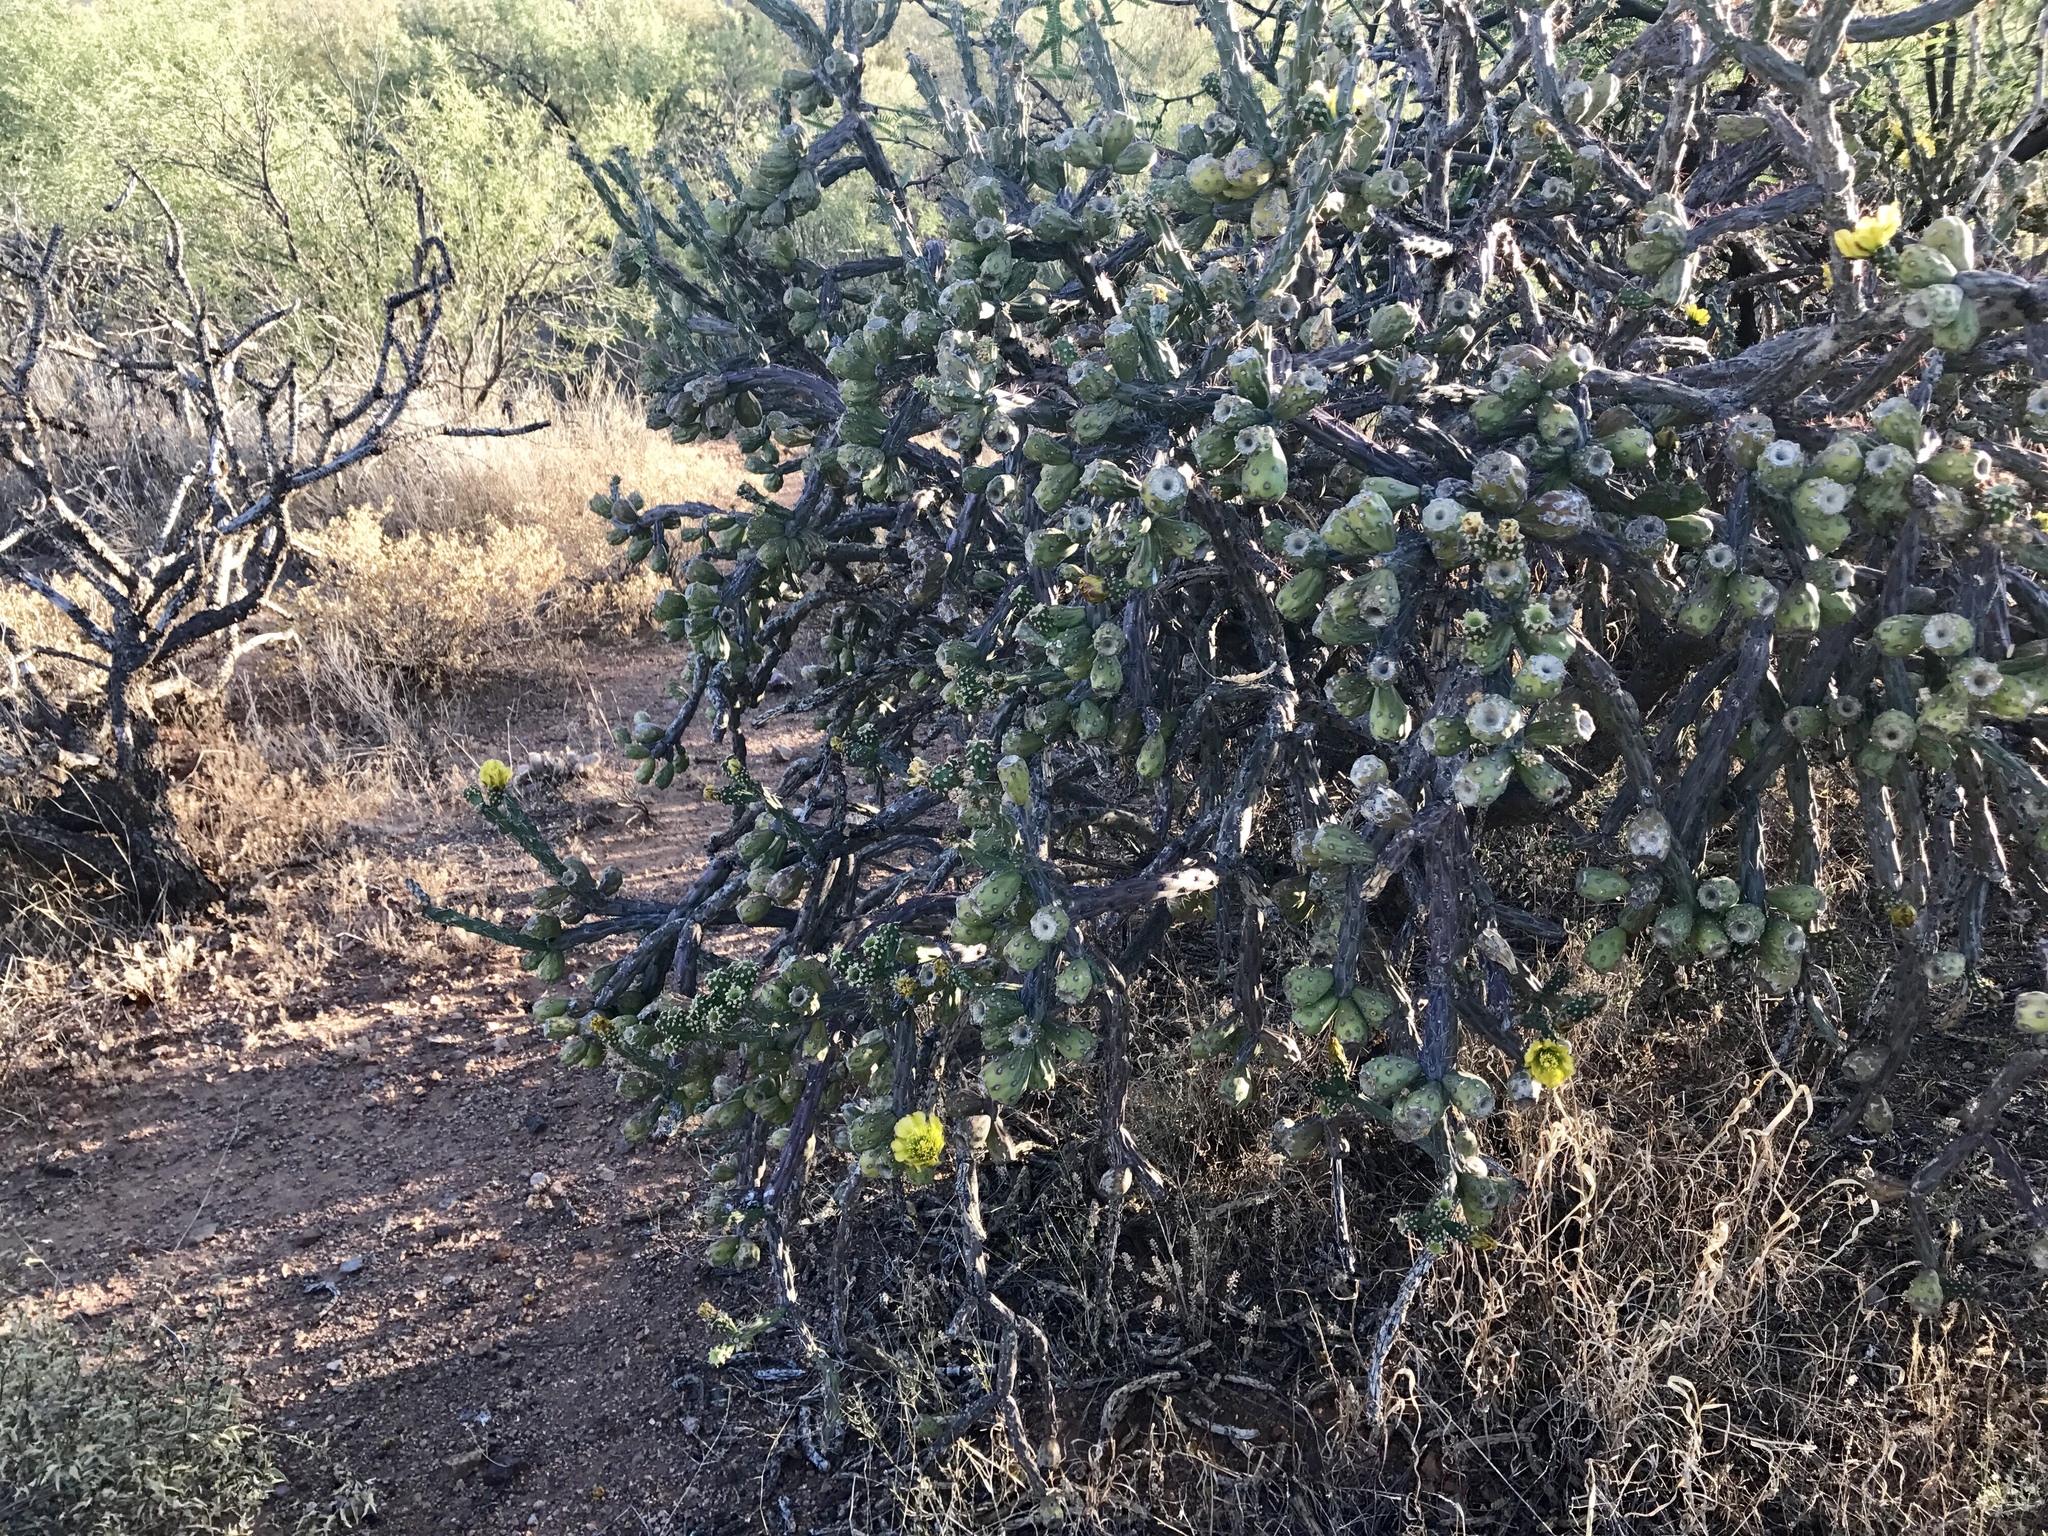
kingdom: Plantae
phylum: Tracheophyta
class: Magnoliopsida
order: Caryophyllales
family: Cactaceae
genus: Cylindropuntia
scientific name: Cylindropuntia thurberi
